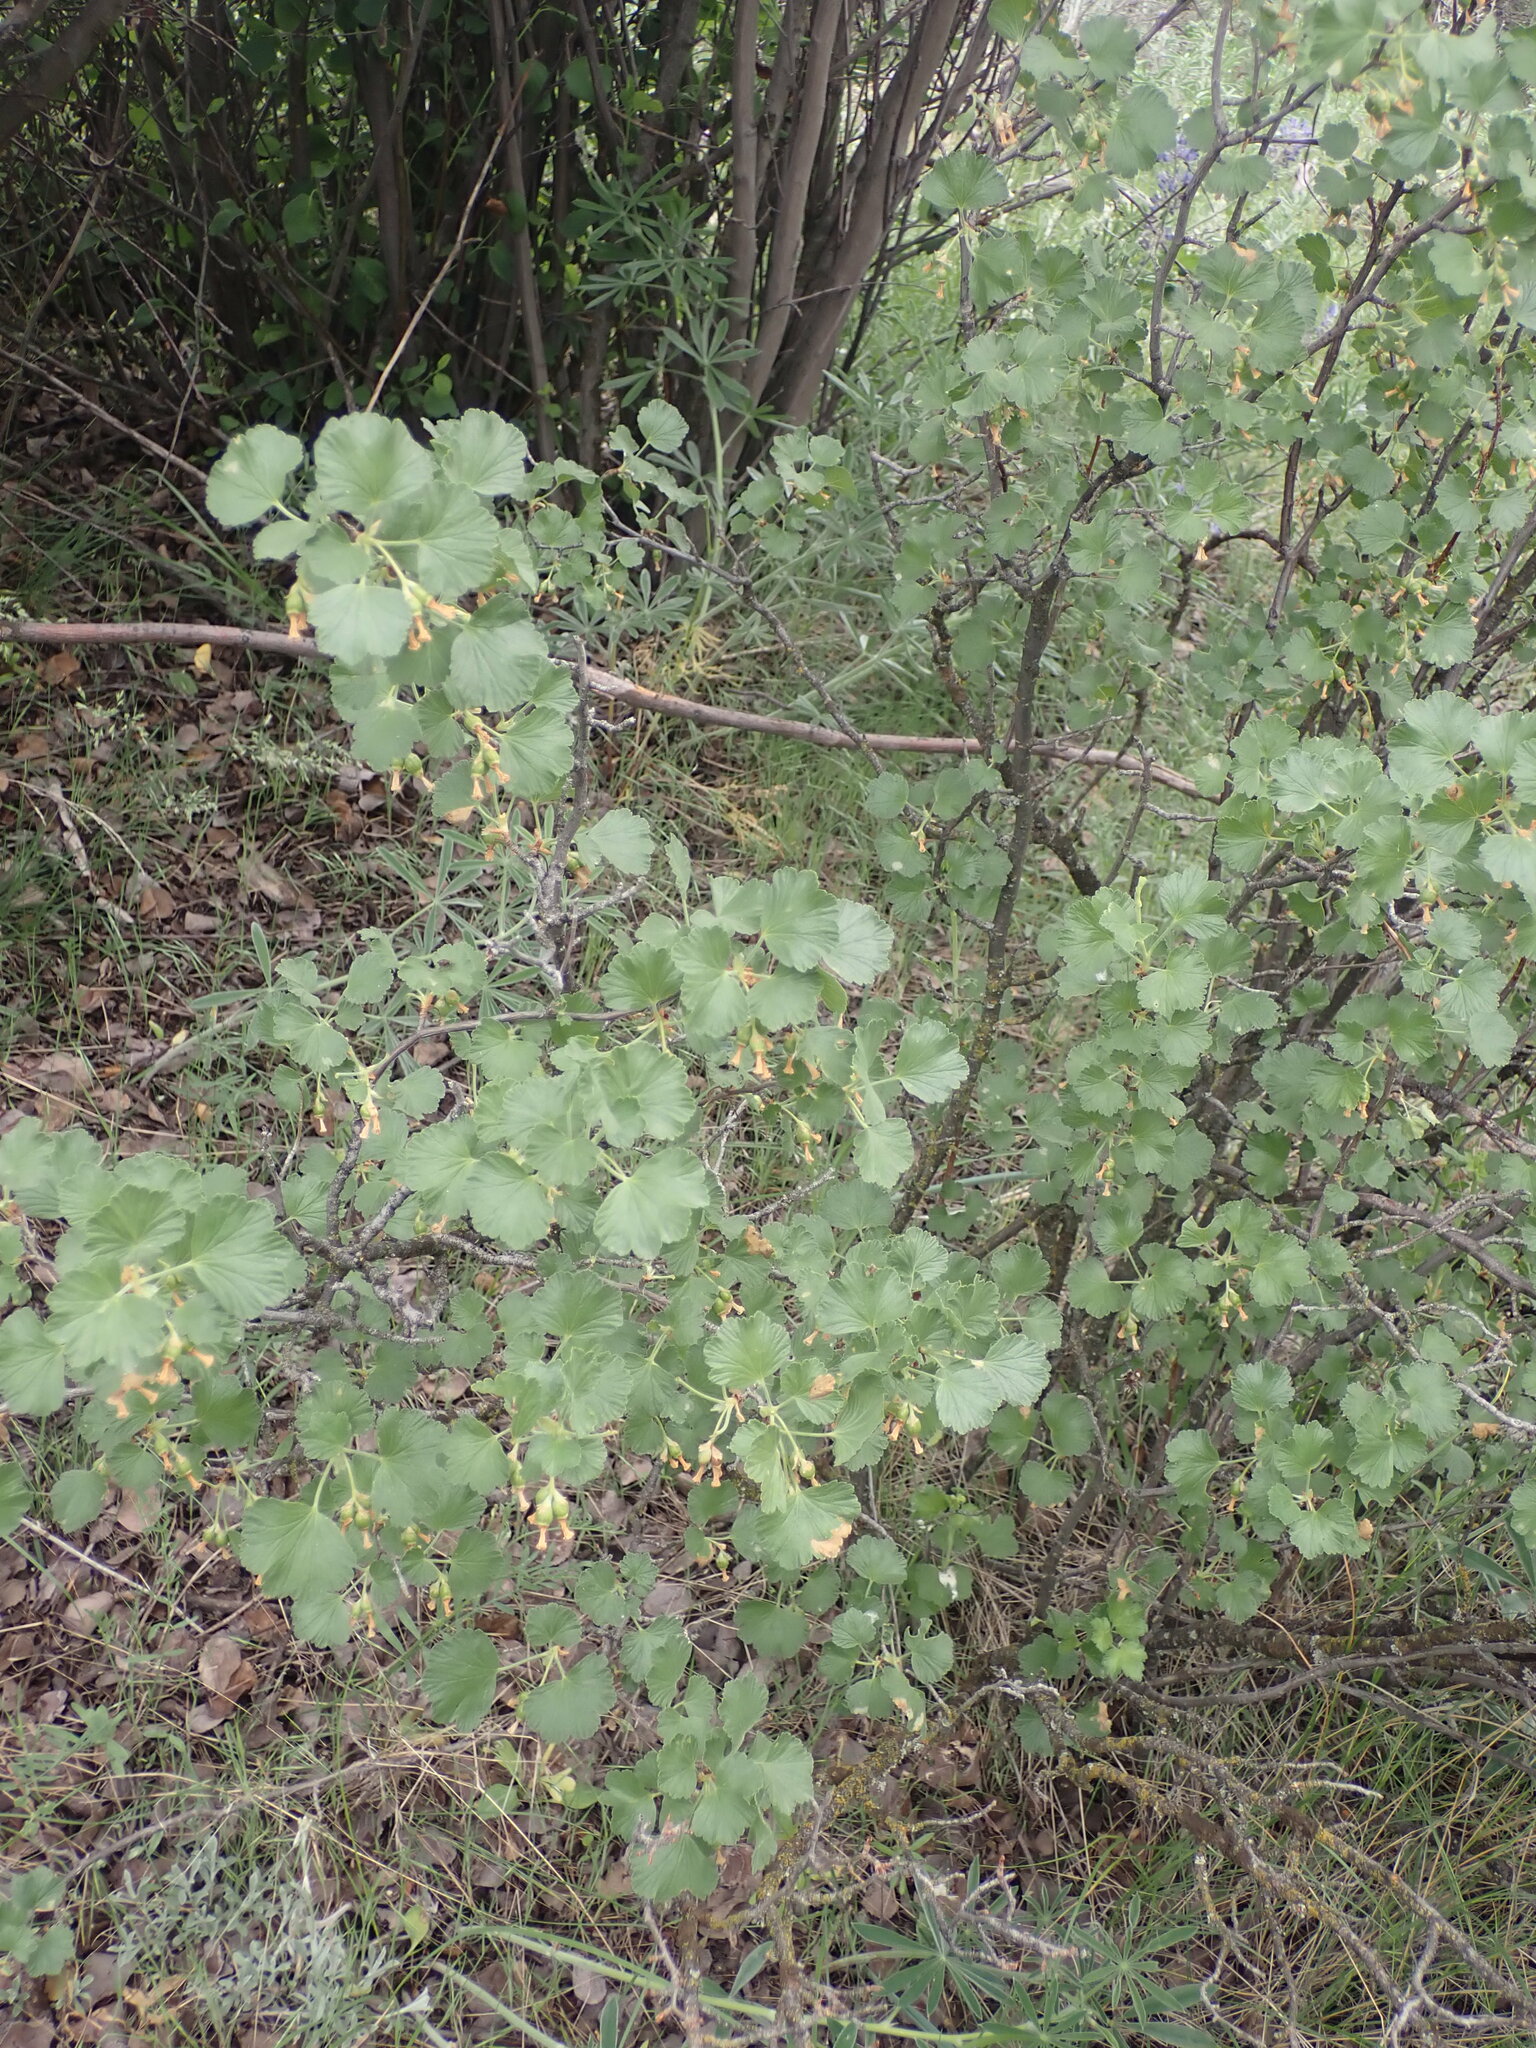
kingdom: Plantae
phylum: Tracheophyta
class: Magnoliopsida
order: Saxifragales
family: Grossulariaceae
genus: Ribes
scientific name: Ribes cereum
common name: Wax currant
